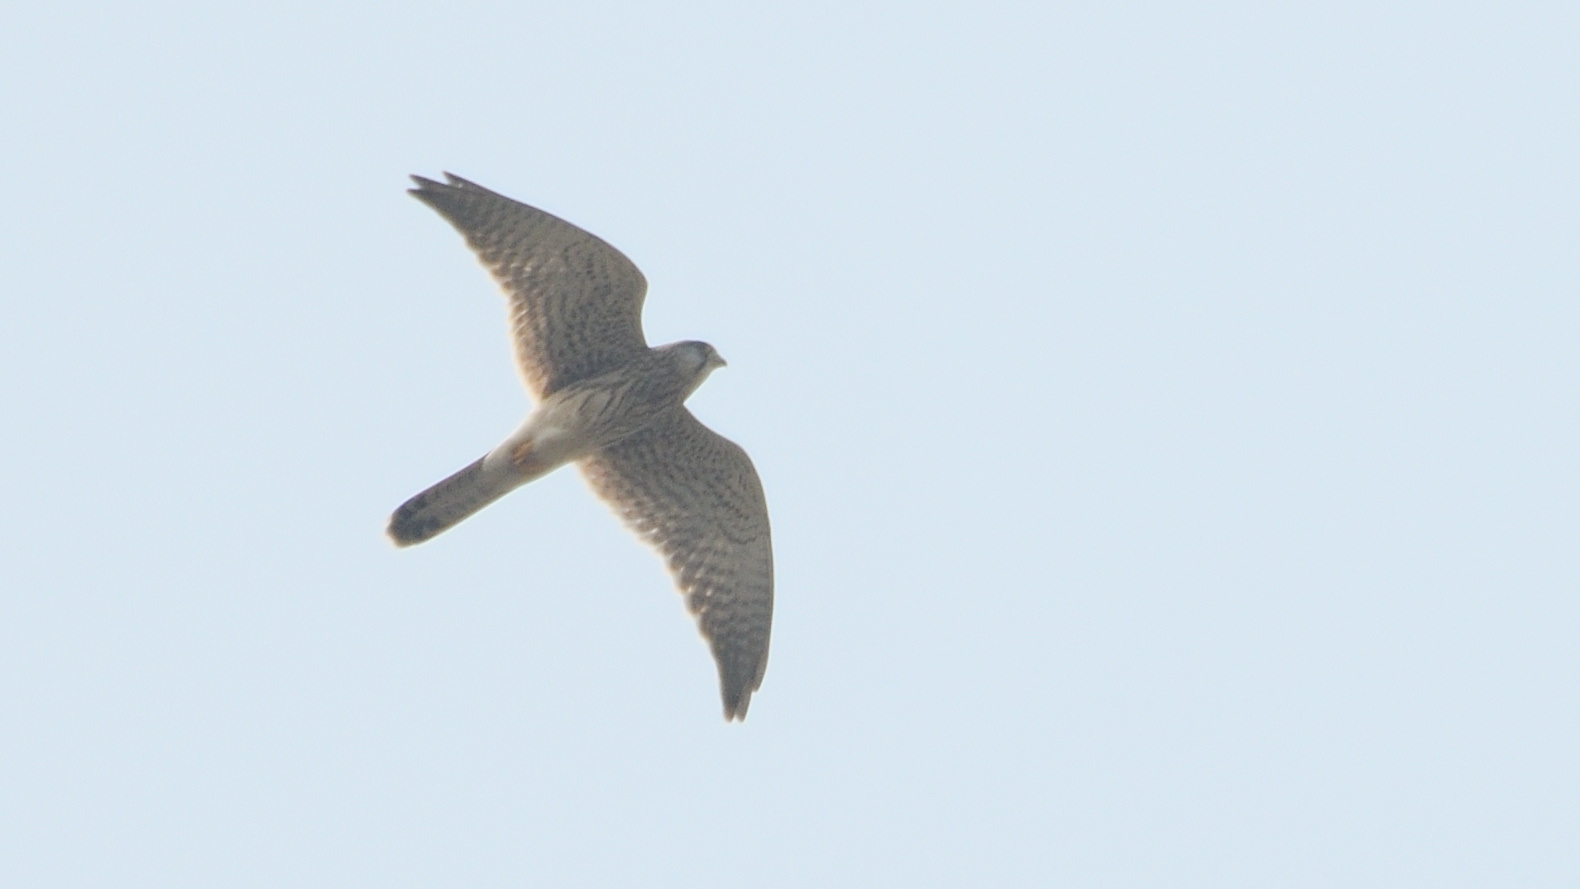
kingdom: Animalia
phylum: Chordata
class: Aves
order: Falconiformes
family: Falconidae
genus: Falco
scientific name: Falco tinnunculus
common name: Common kestrel
